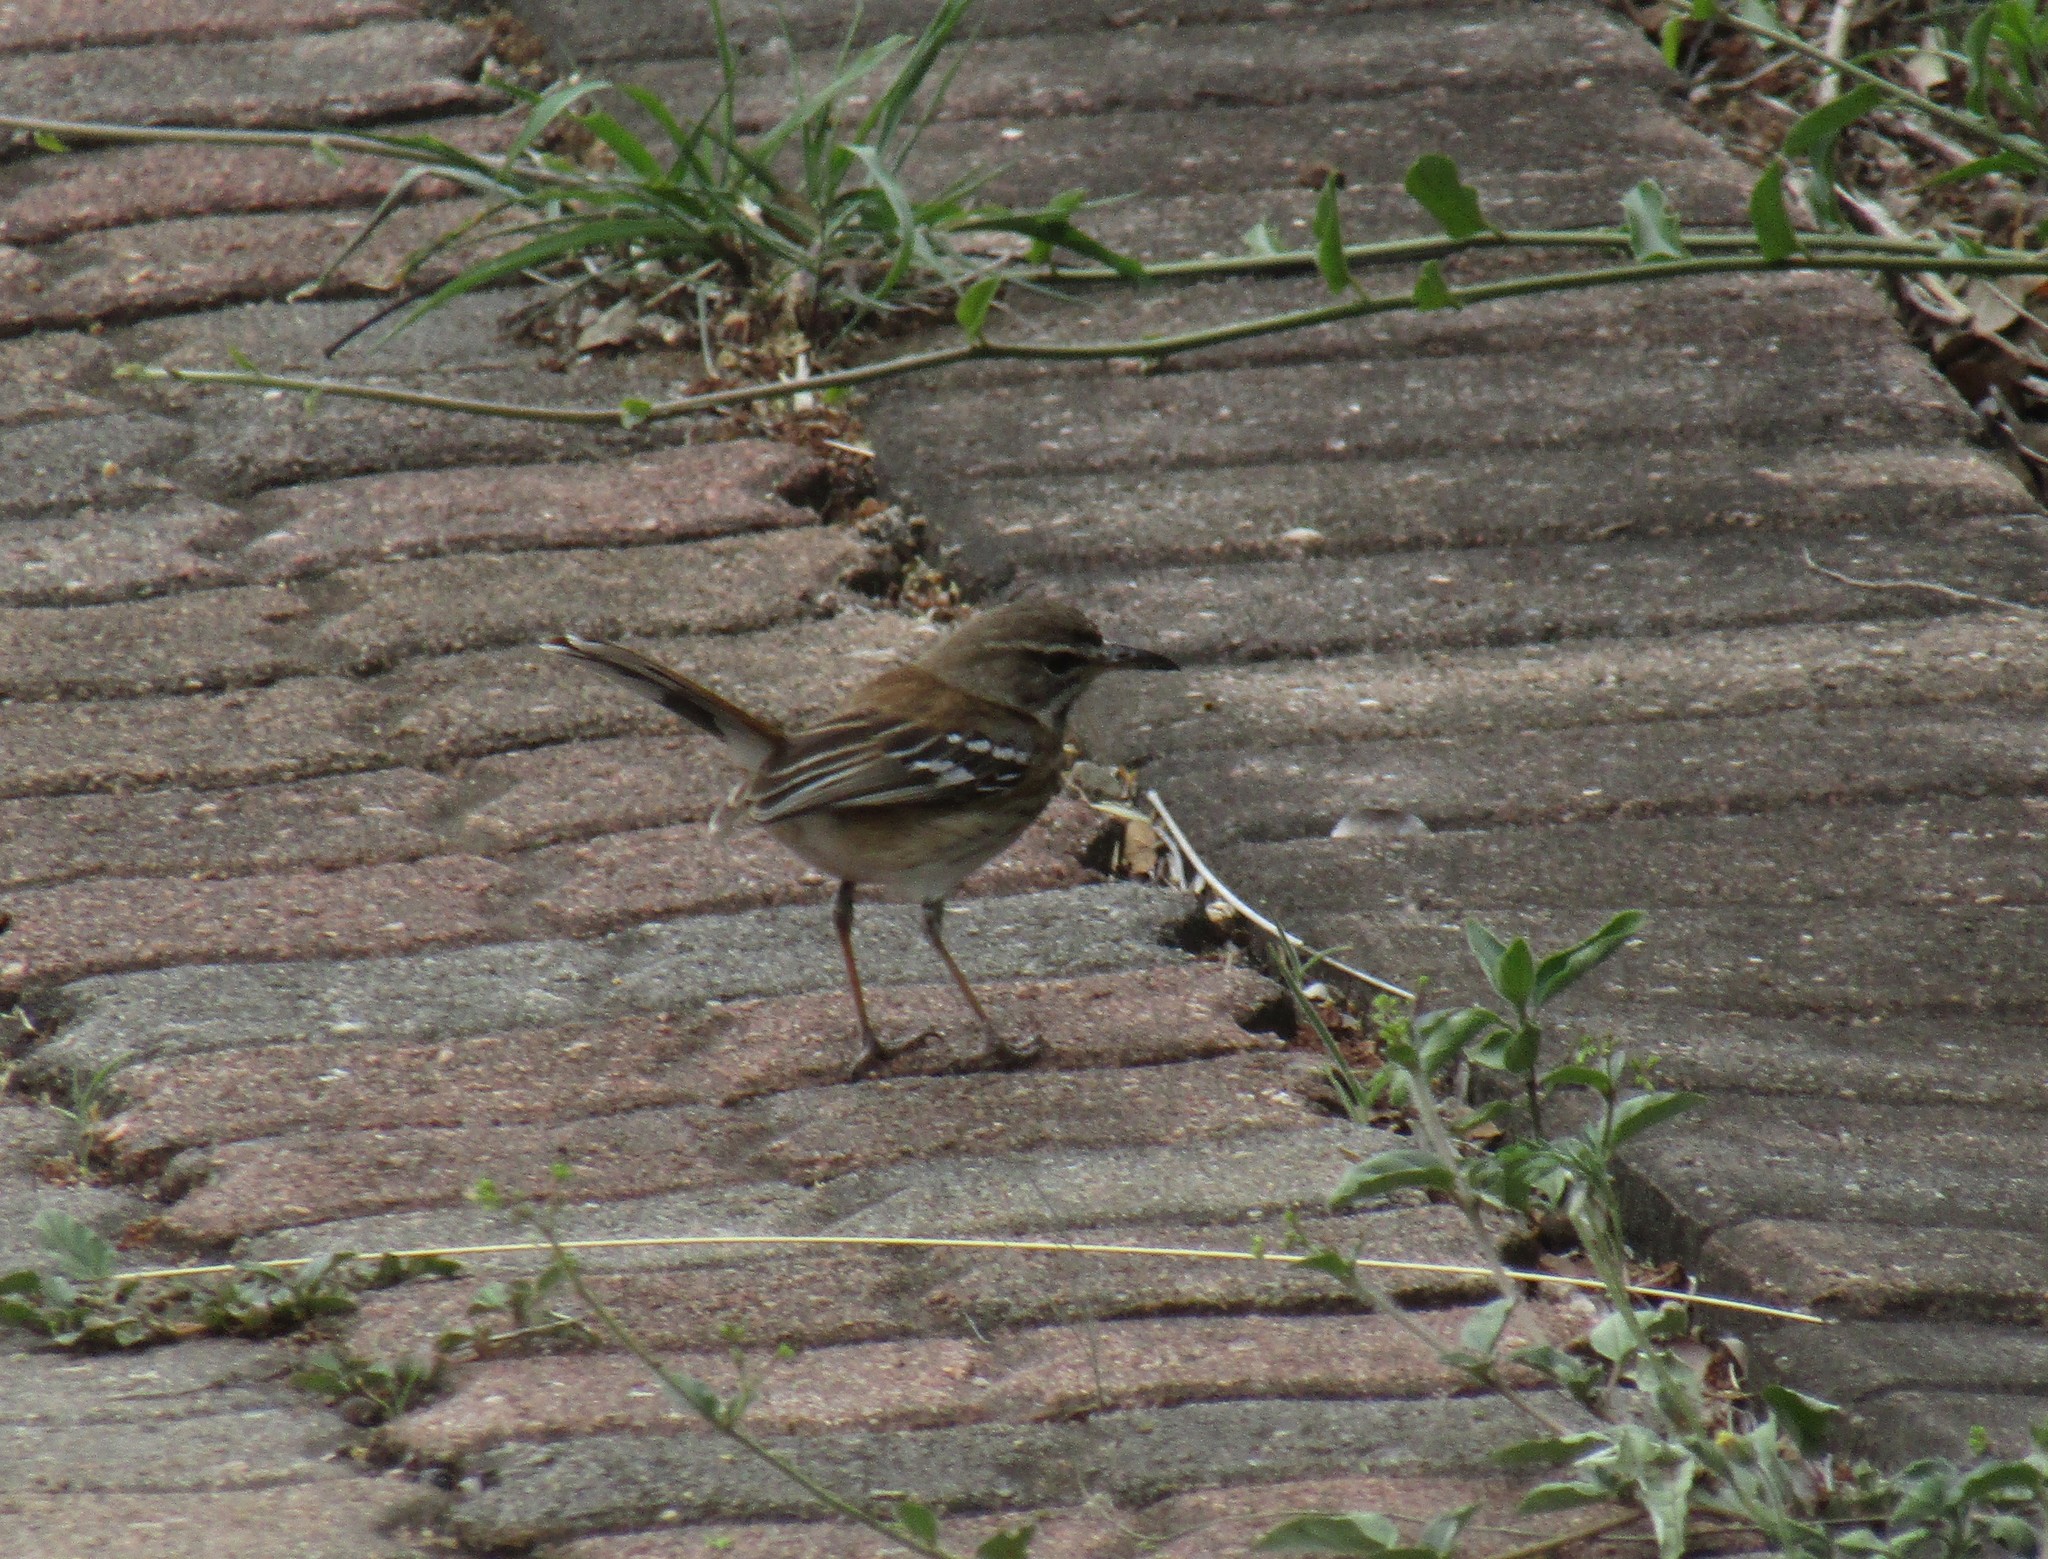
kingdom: Animalia
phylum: Chordata
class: Aves
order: Passeriformes
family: Muscicapidae
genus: Erythropygia
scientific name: Erythropygia leucophrys
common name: White-browed scrub robin
